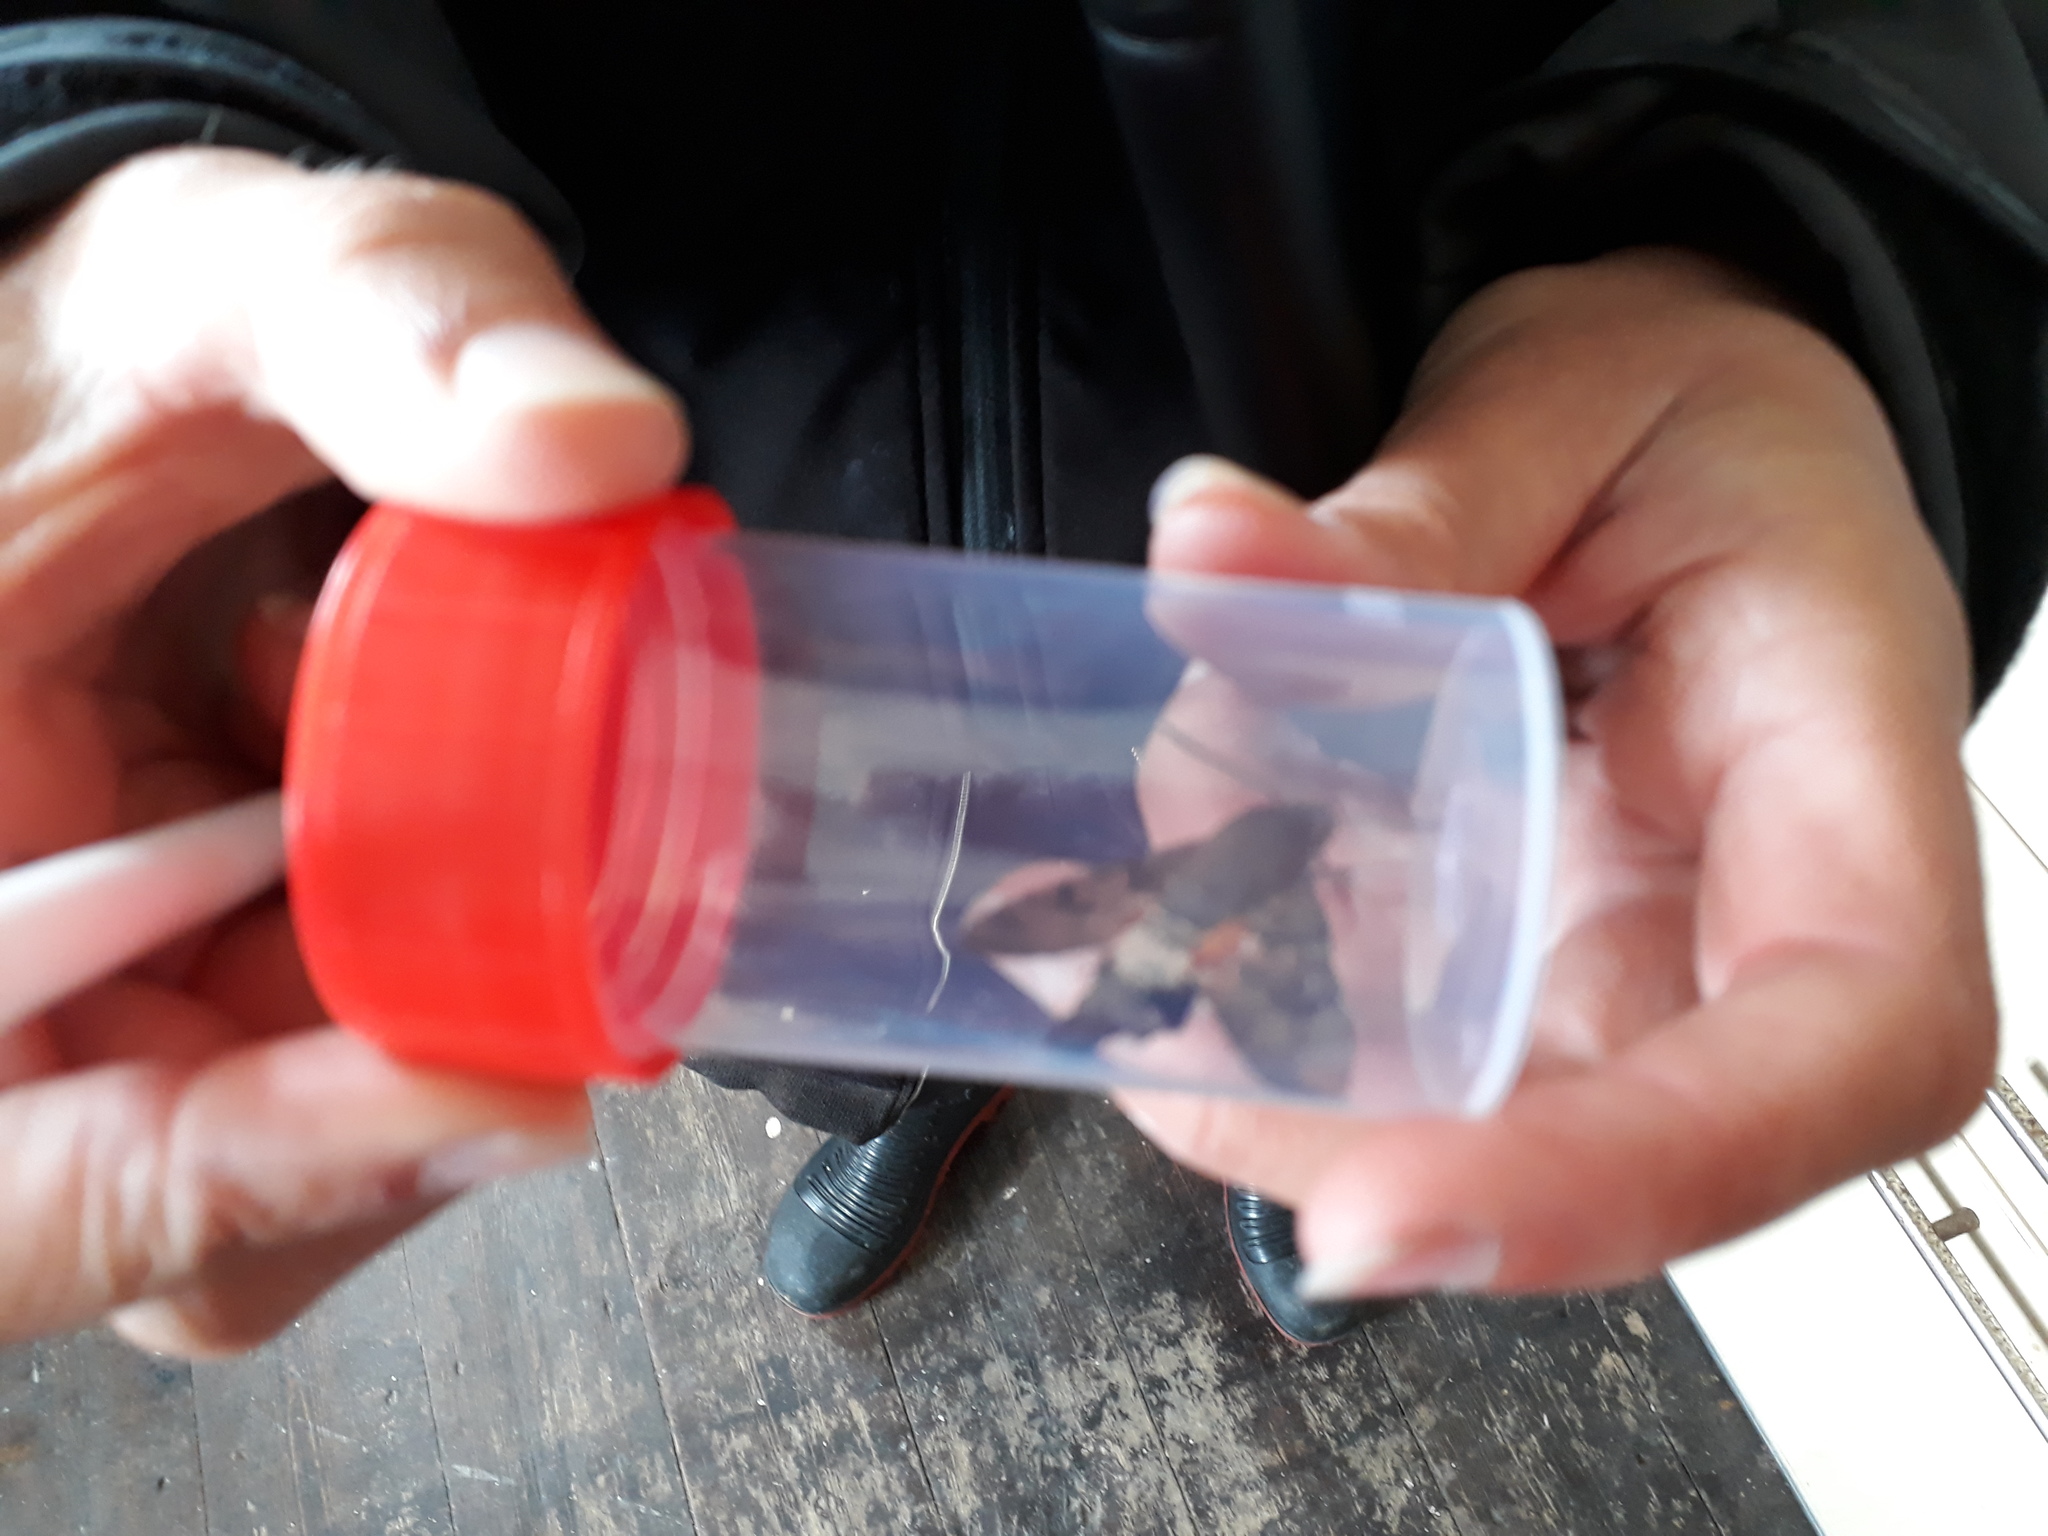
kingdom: Animalia
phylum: Arthropoda
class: Insecta
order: Lepidoptera
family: Sphingidae
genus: Macroglossum
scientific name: Macroglossum stellatarum
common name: Humming-bird hawk-moth
